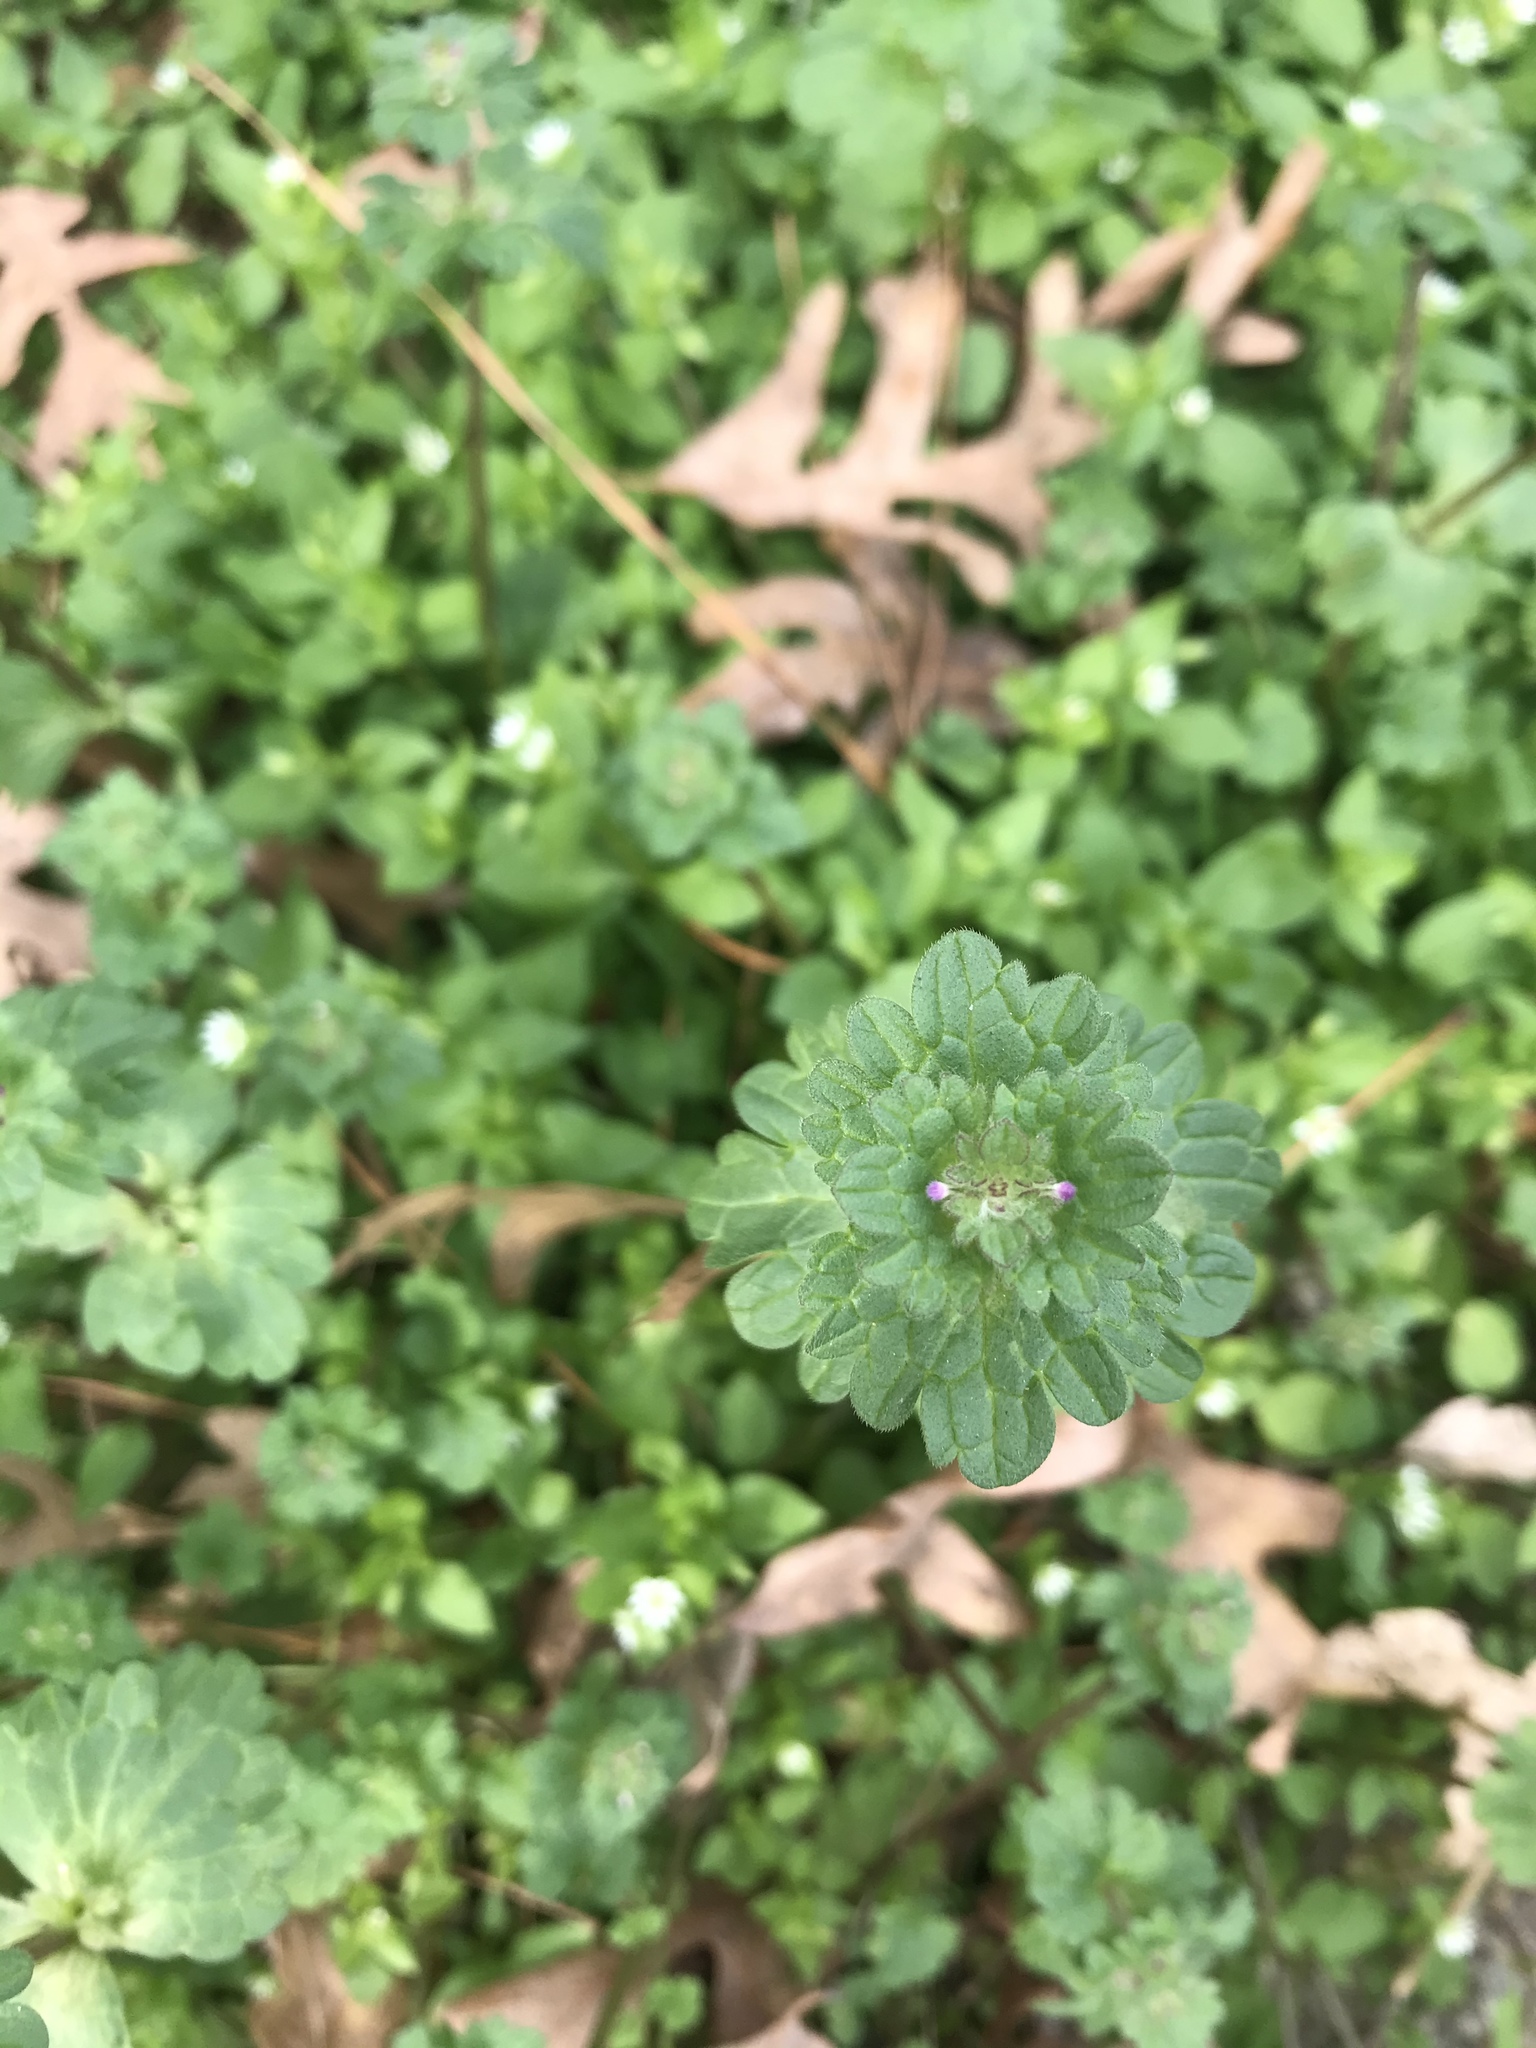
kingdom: Plantae
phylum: Tracheophyta
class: Magnoliopsida
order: Lamiales
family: Lamiaceae
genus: Lamium
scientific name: Lamium amplexicaule
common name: Henbit dead-nettle
